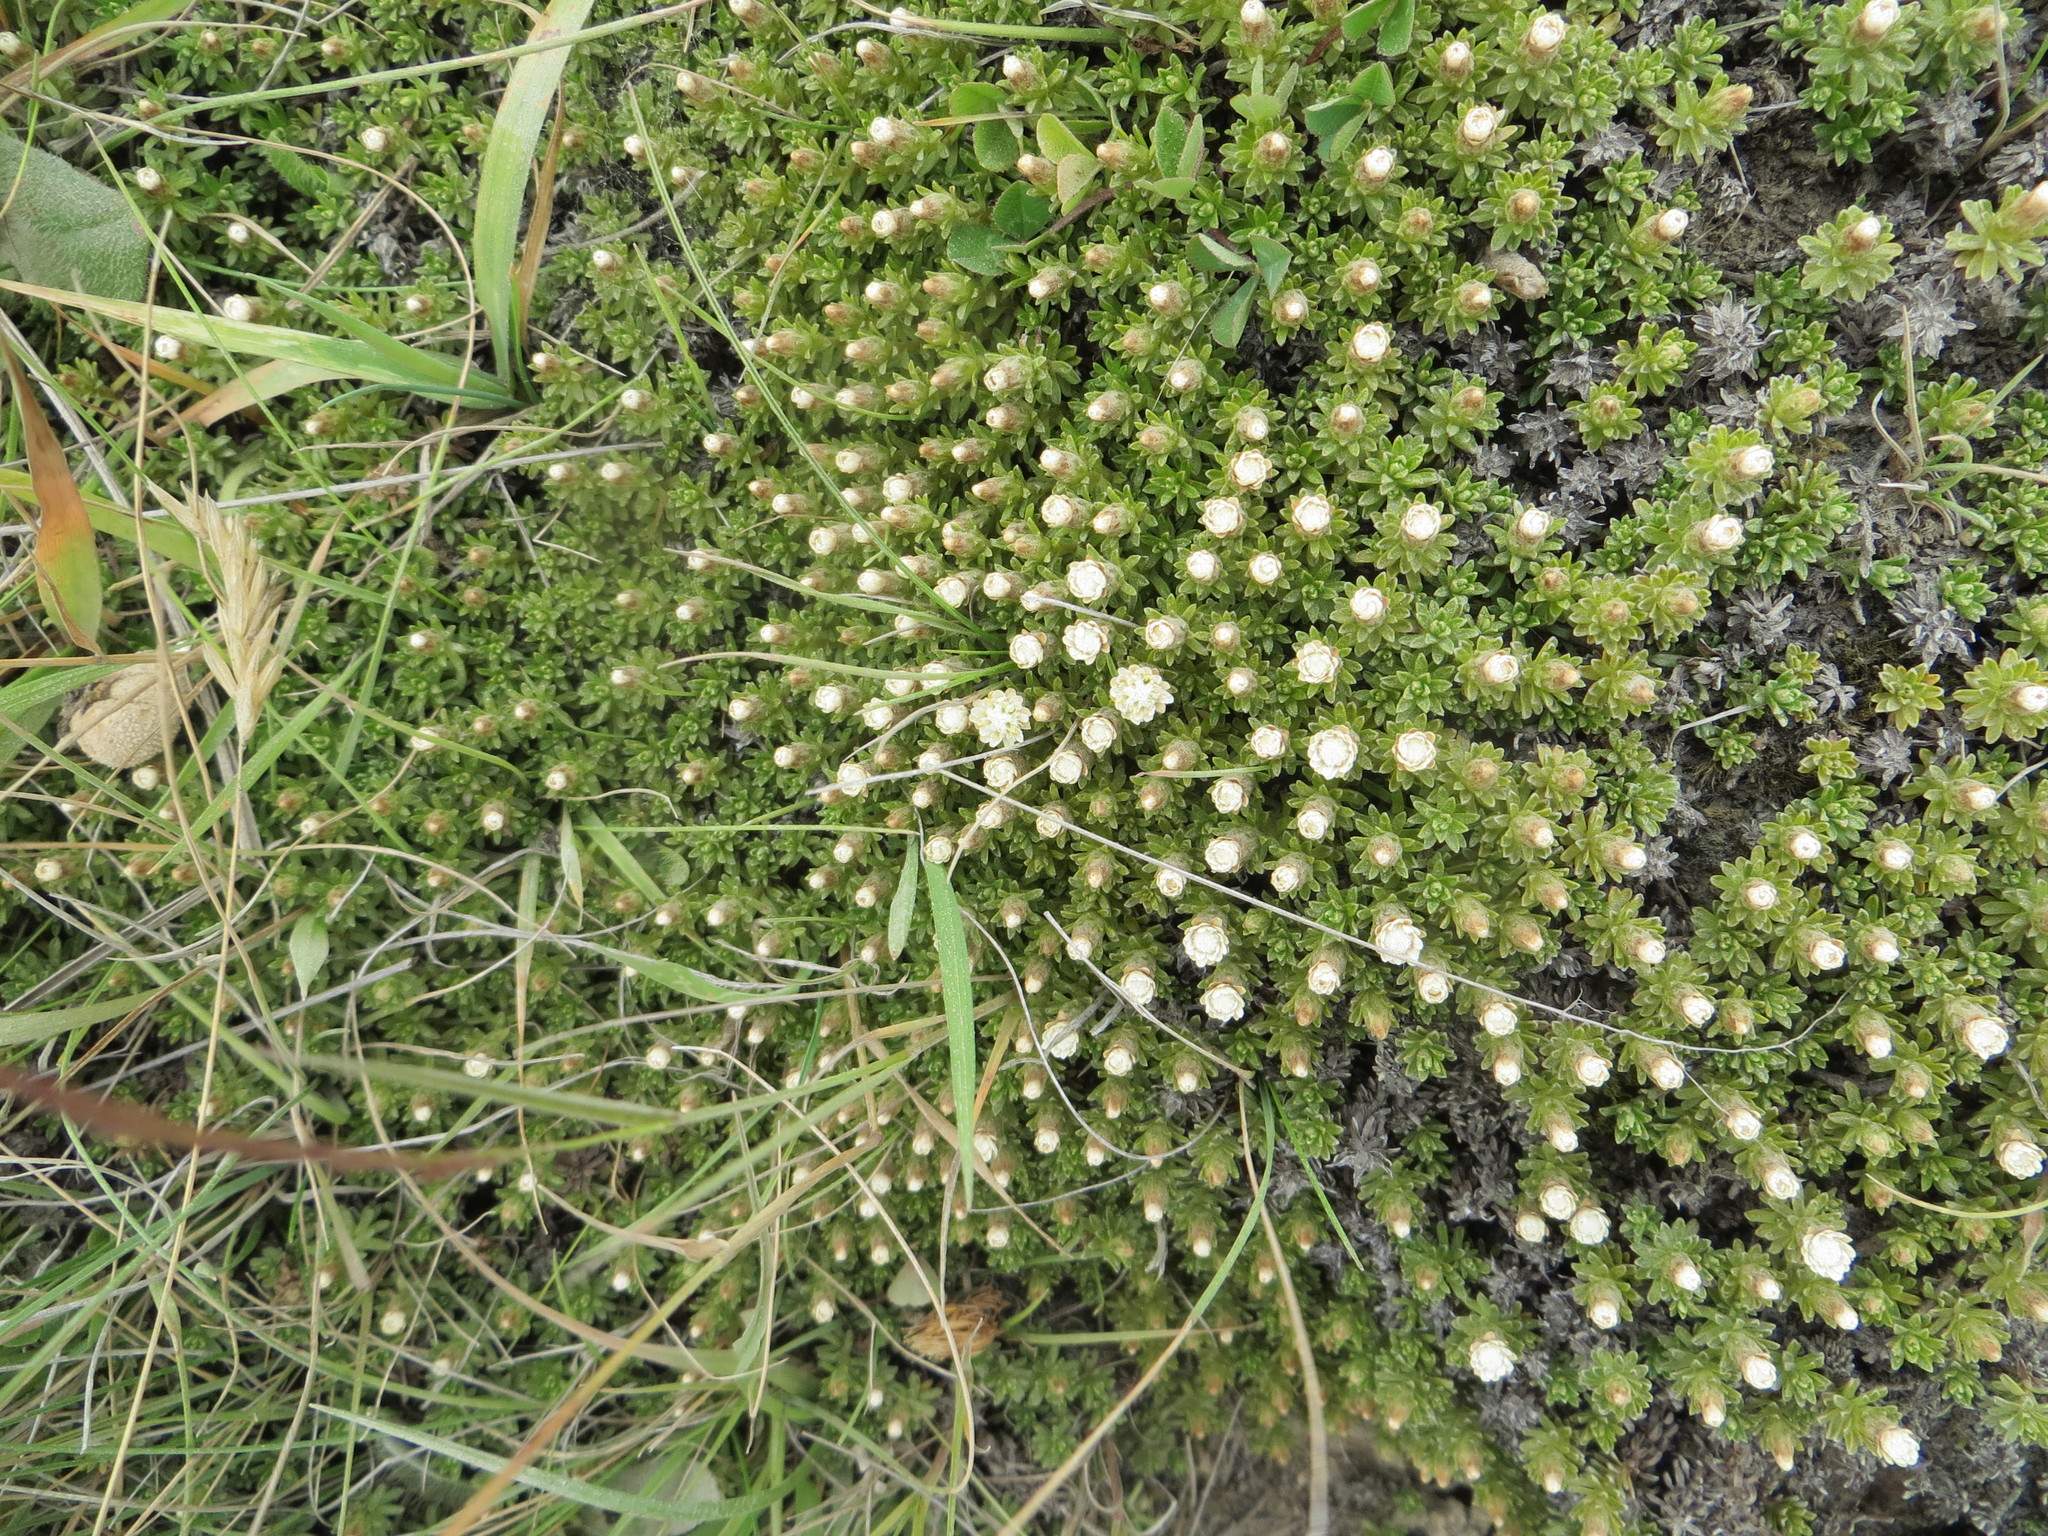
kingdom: Plantae
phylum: Tracheophyta
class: Magnoliopsida
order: Asterales
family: Asteraceae
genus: Raoulia
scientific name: Raoulia glabra
